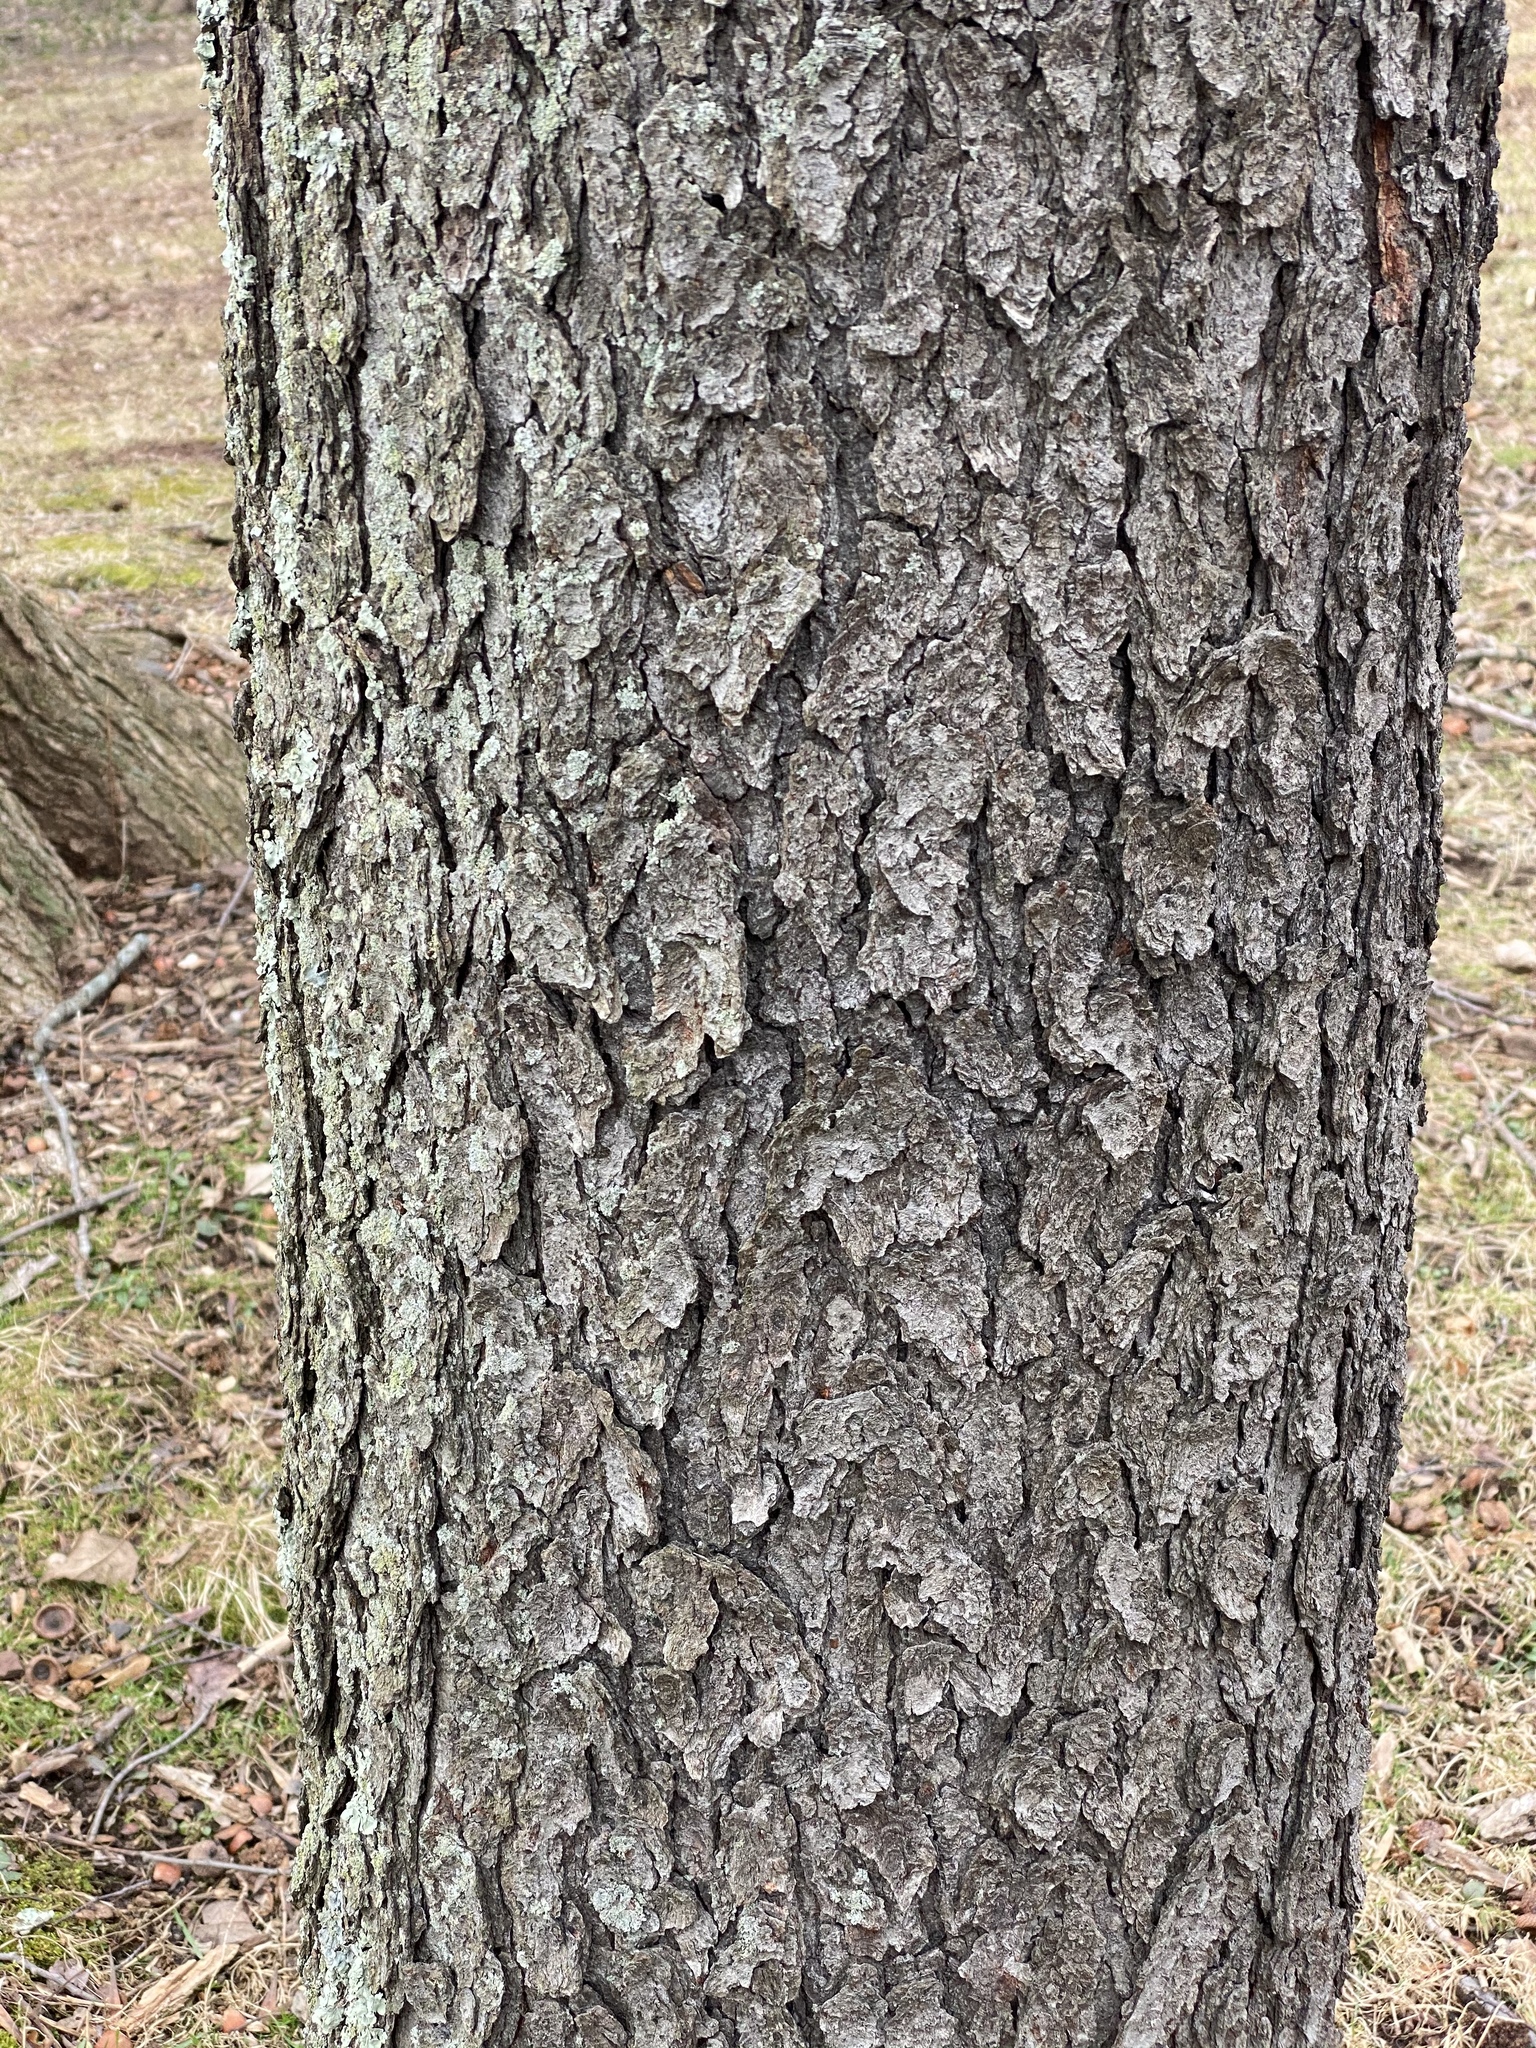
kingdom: Plantae
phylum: Tracheophyta
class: Magnoliopsida
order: Rosales
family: Rosaceae
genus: Prunus
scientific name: Prunus serotina
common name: Black cherry
